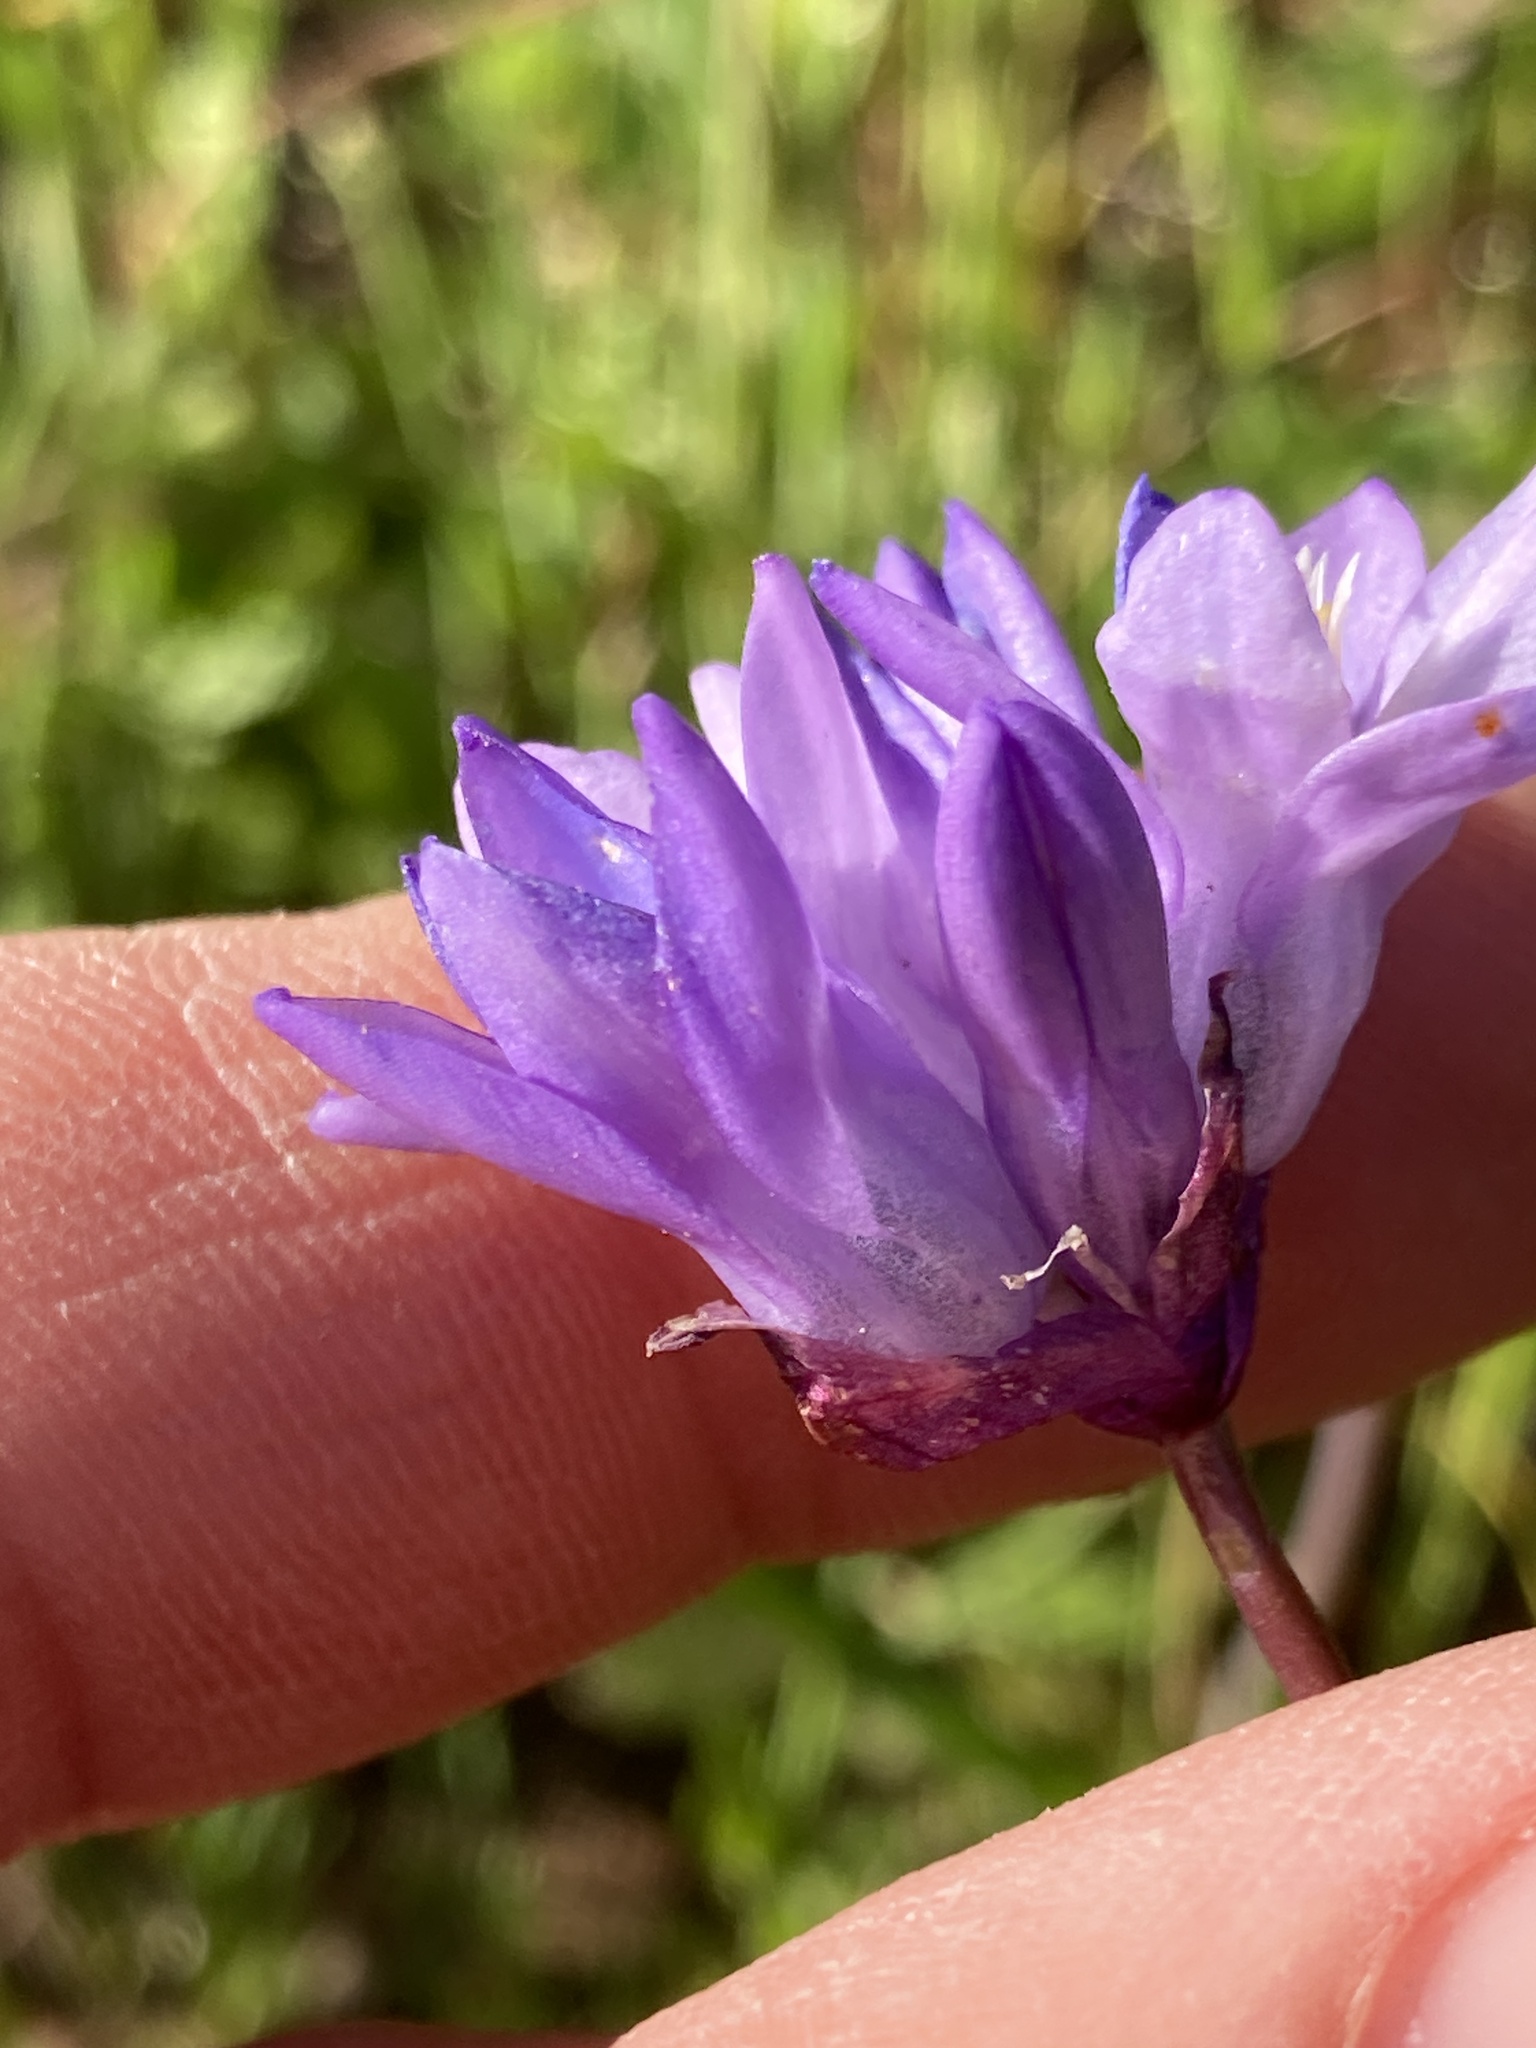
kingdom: Plantae
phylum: Tracheophyta
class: Liliopsida
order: Asparagales
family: Asparagaceae
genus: Dipterostemon
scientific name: Dipterostemon capitatus
